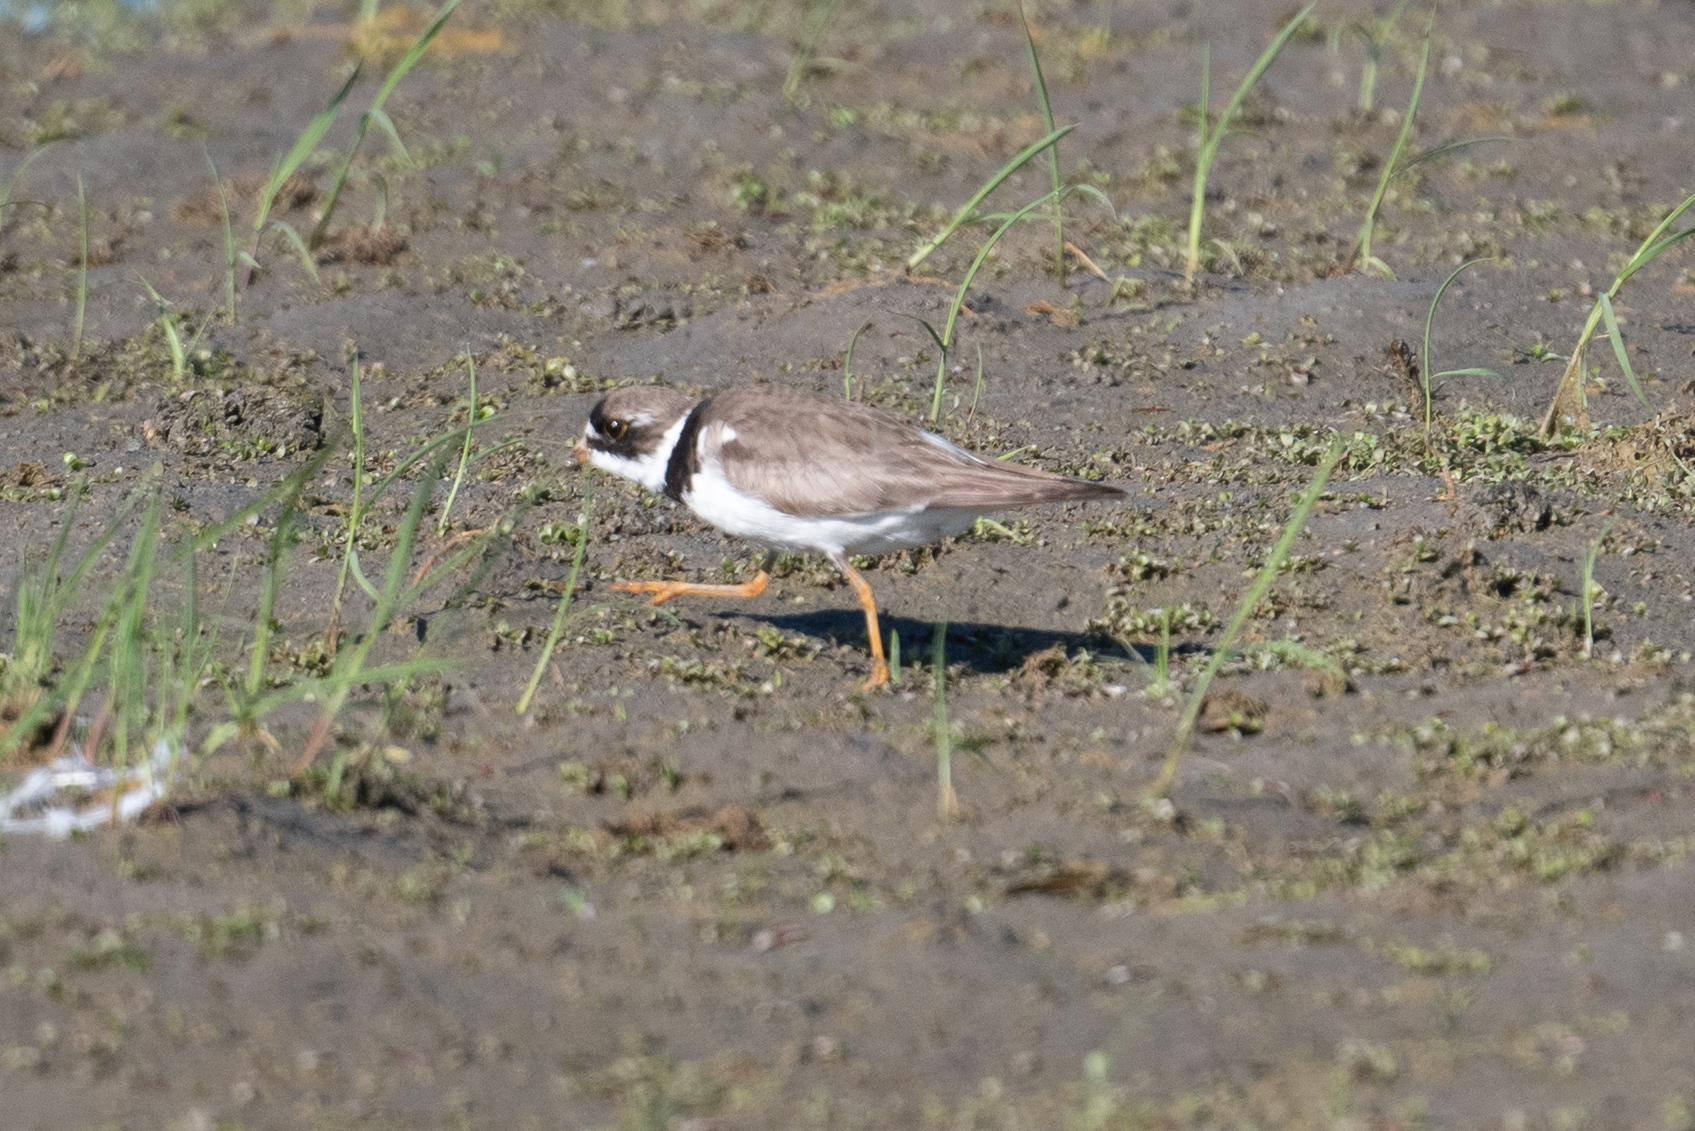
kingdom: Animalia
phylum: Chordata
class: Aves
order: Charadriiformes
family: Charadriidae
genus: Charadrius
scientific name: Charadrius semipalmatus
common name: Semipalmated plover
